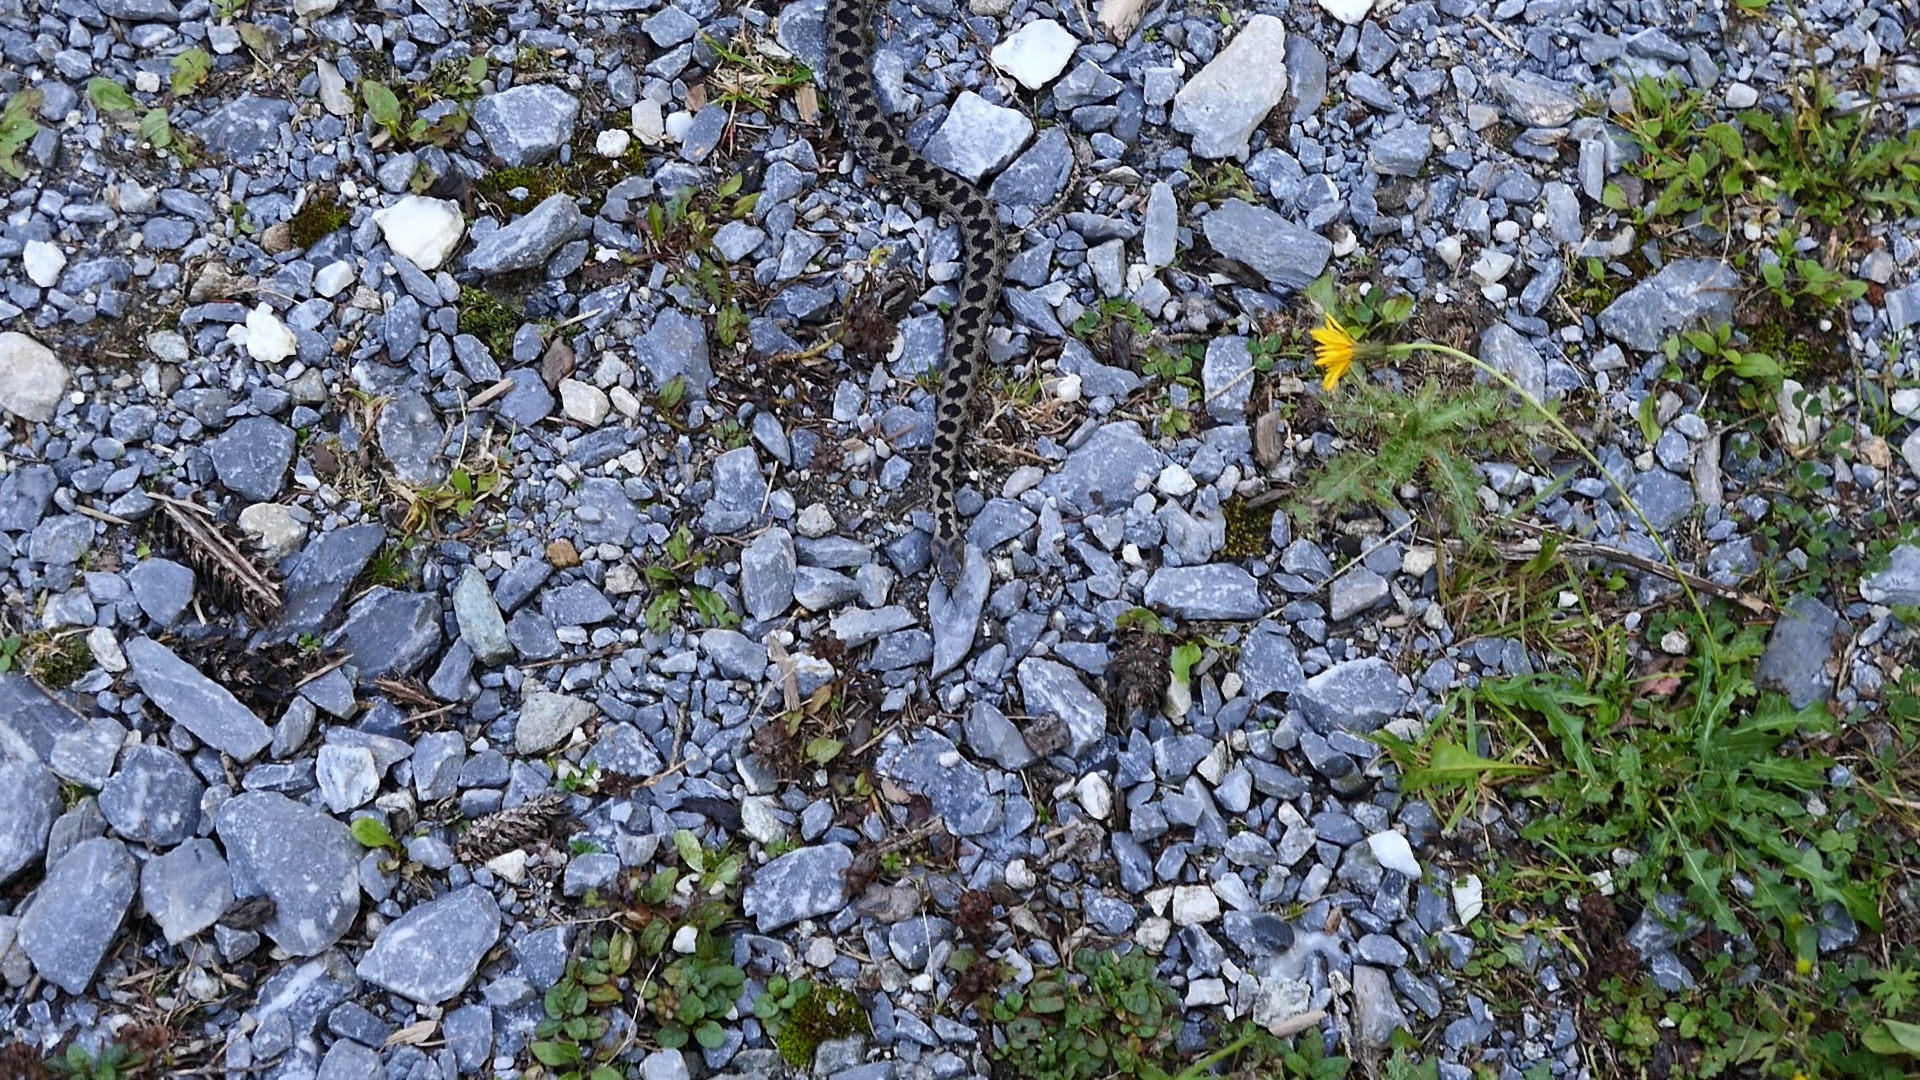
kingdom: Animalia
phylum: Chordata
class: Squamata
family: Viperidae
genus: Vipera
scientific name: Vipera berus
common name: Adder
